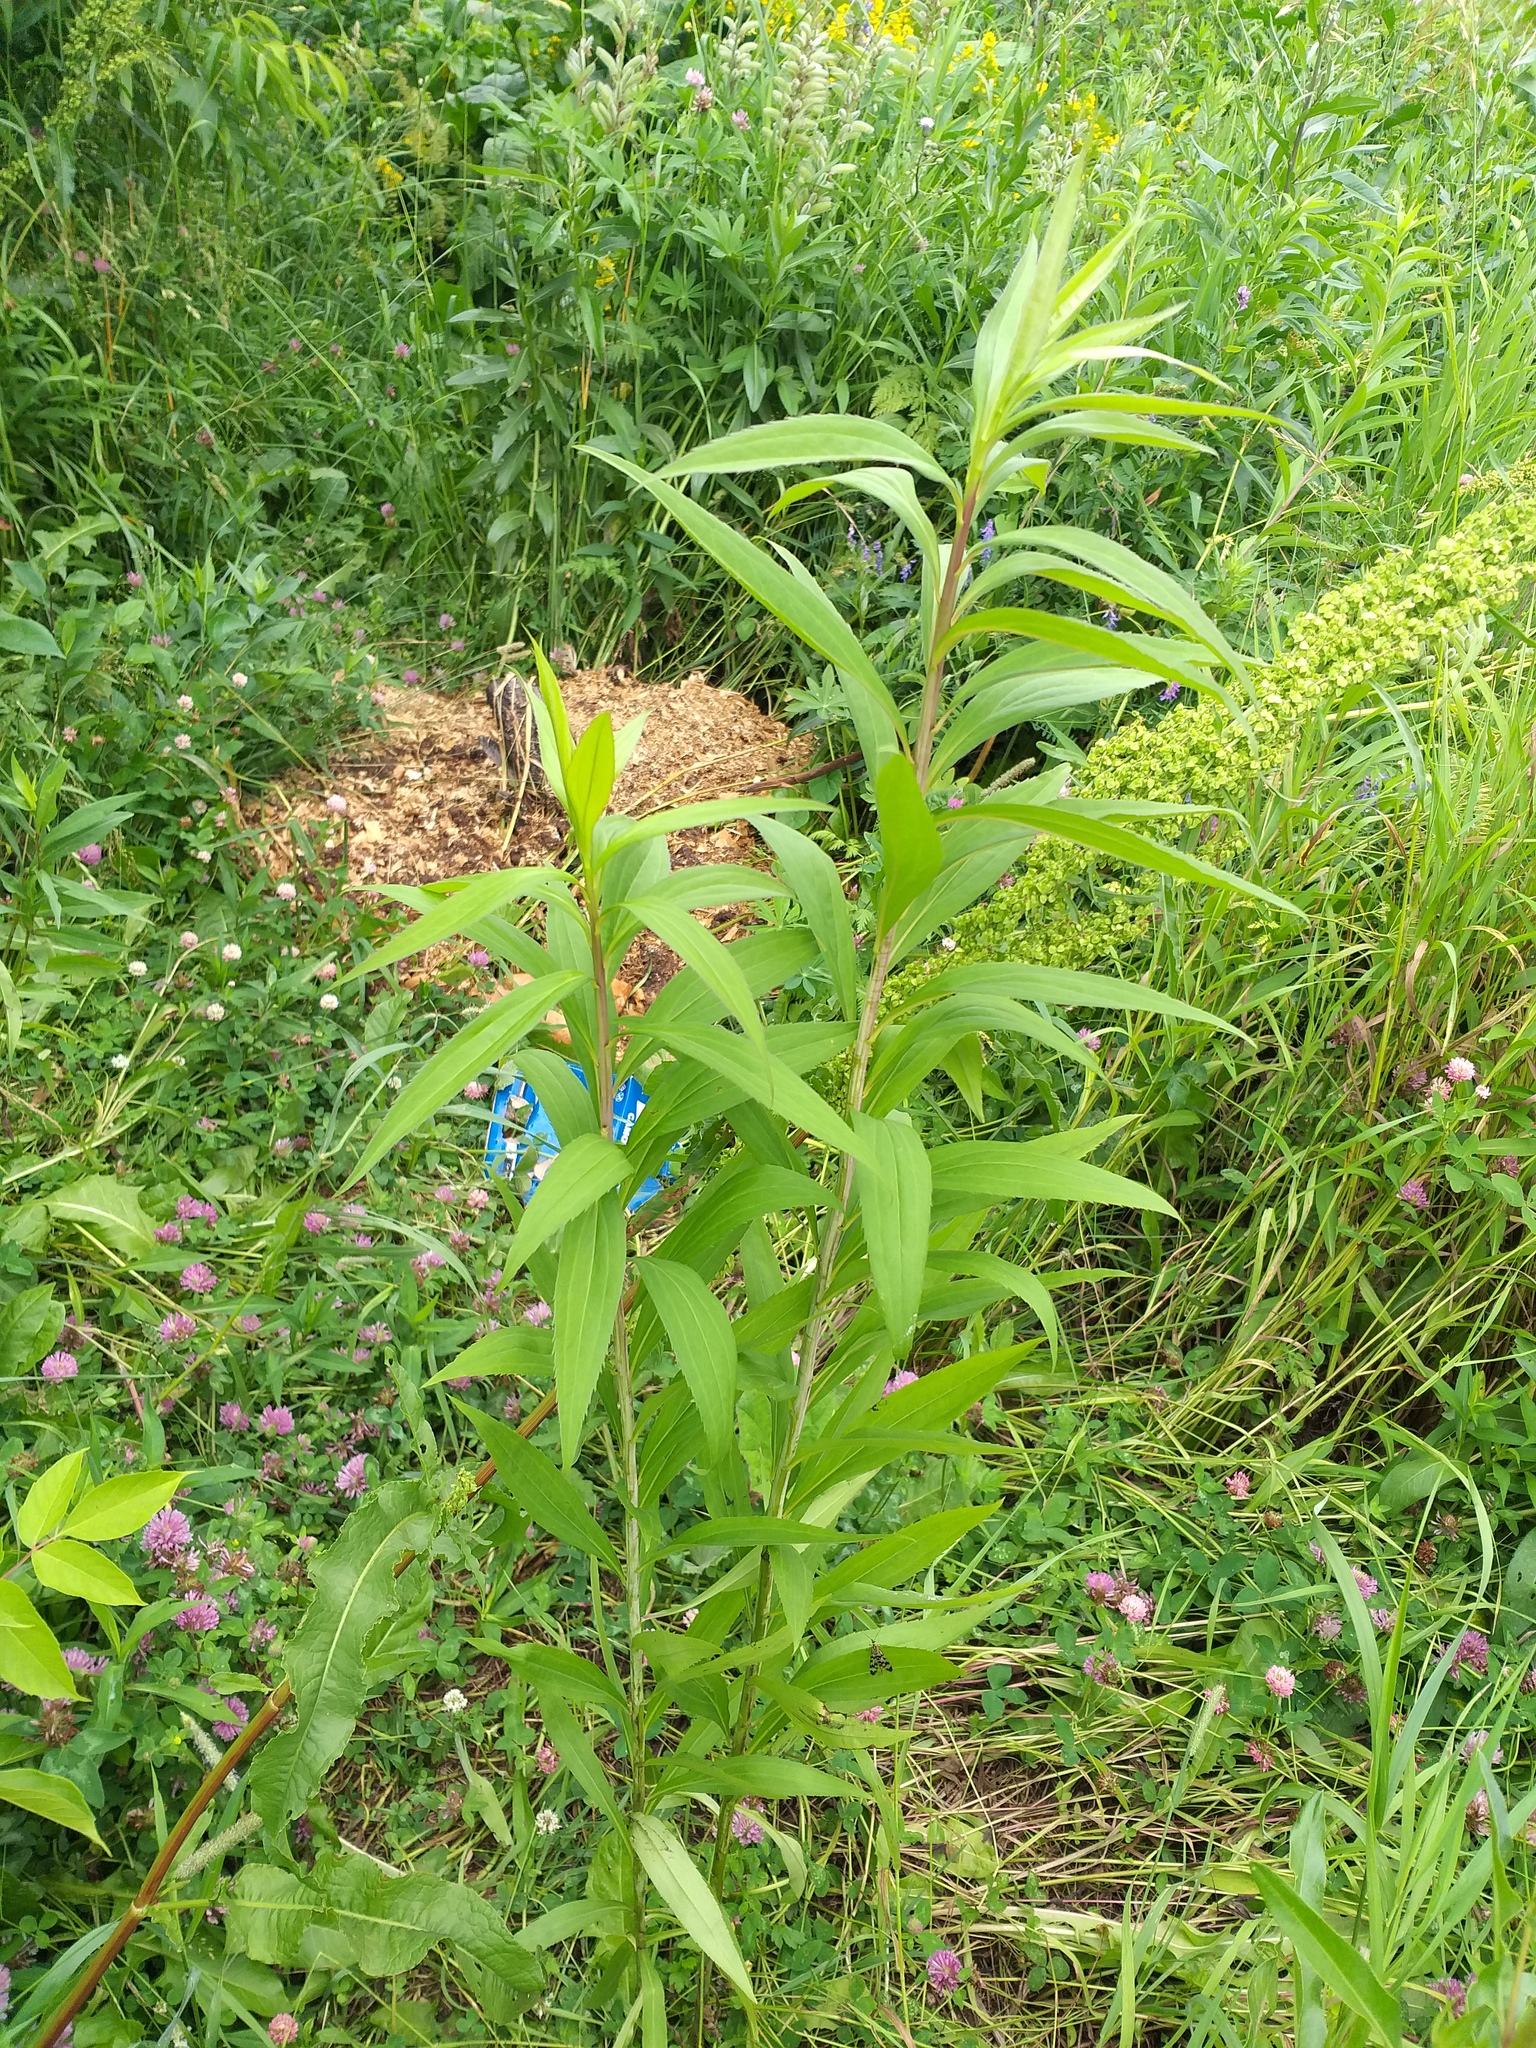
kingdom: Plantae
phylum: Tracheophyta
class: Magnoliopsida
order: Asterales
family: Asteraceae
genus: Solidago
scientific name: Solidago gigantea
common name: Giant goldenrod
